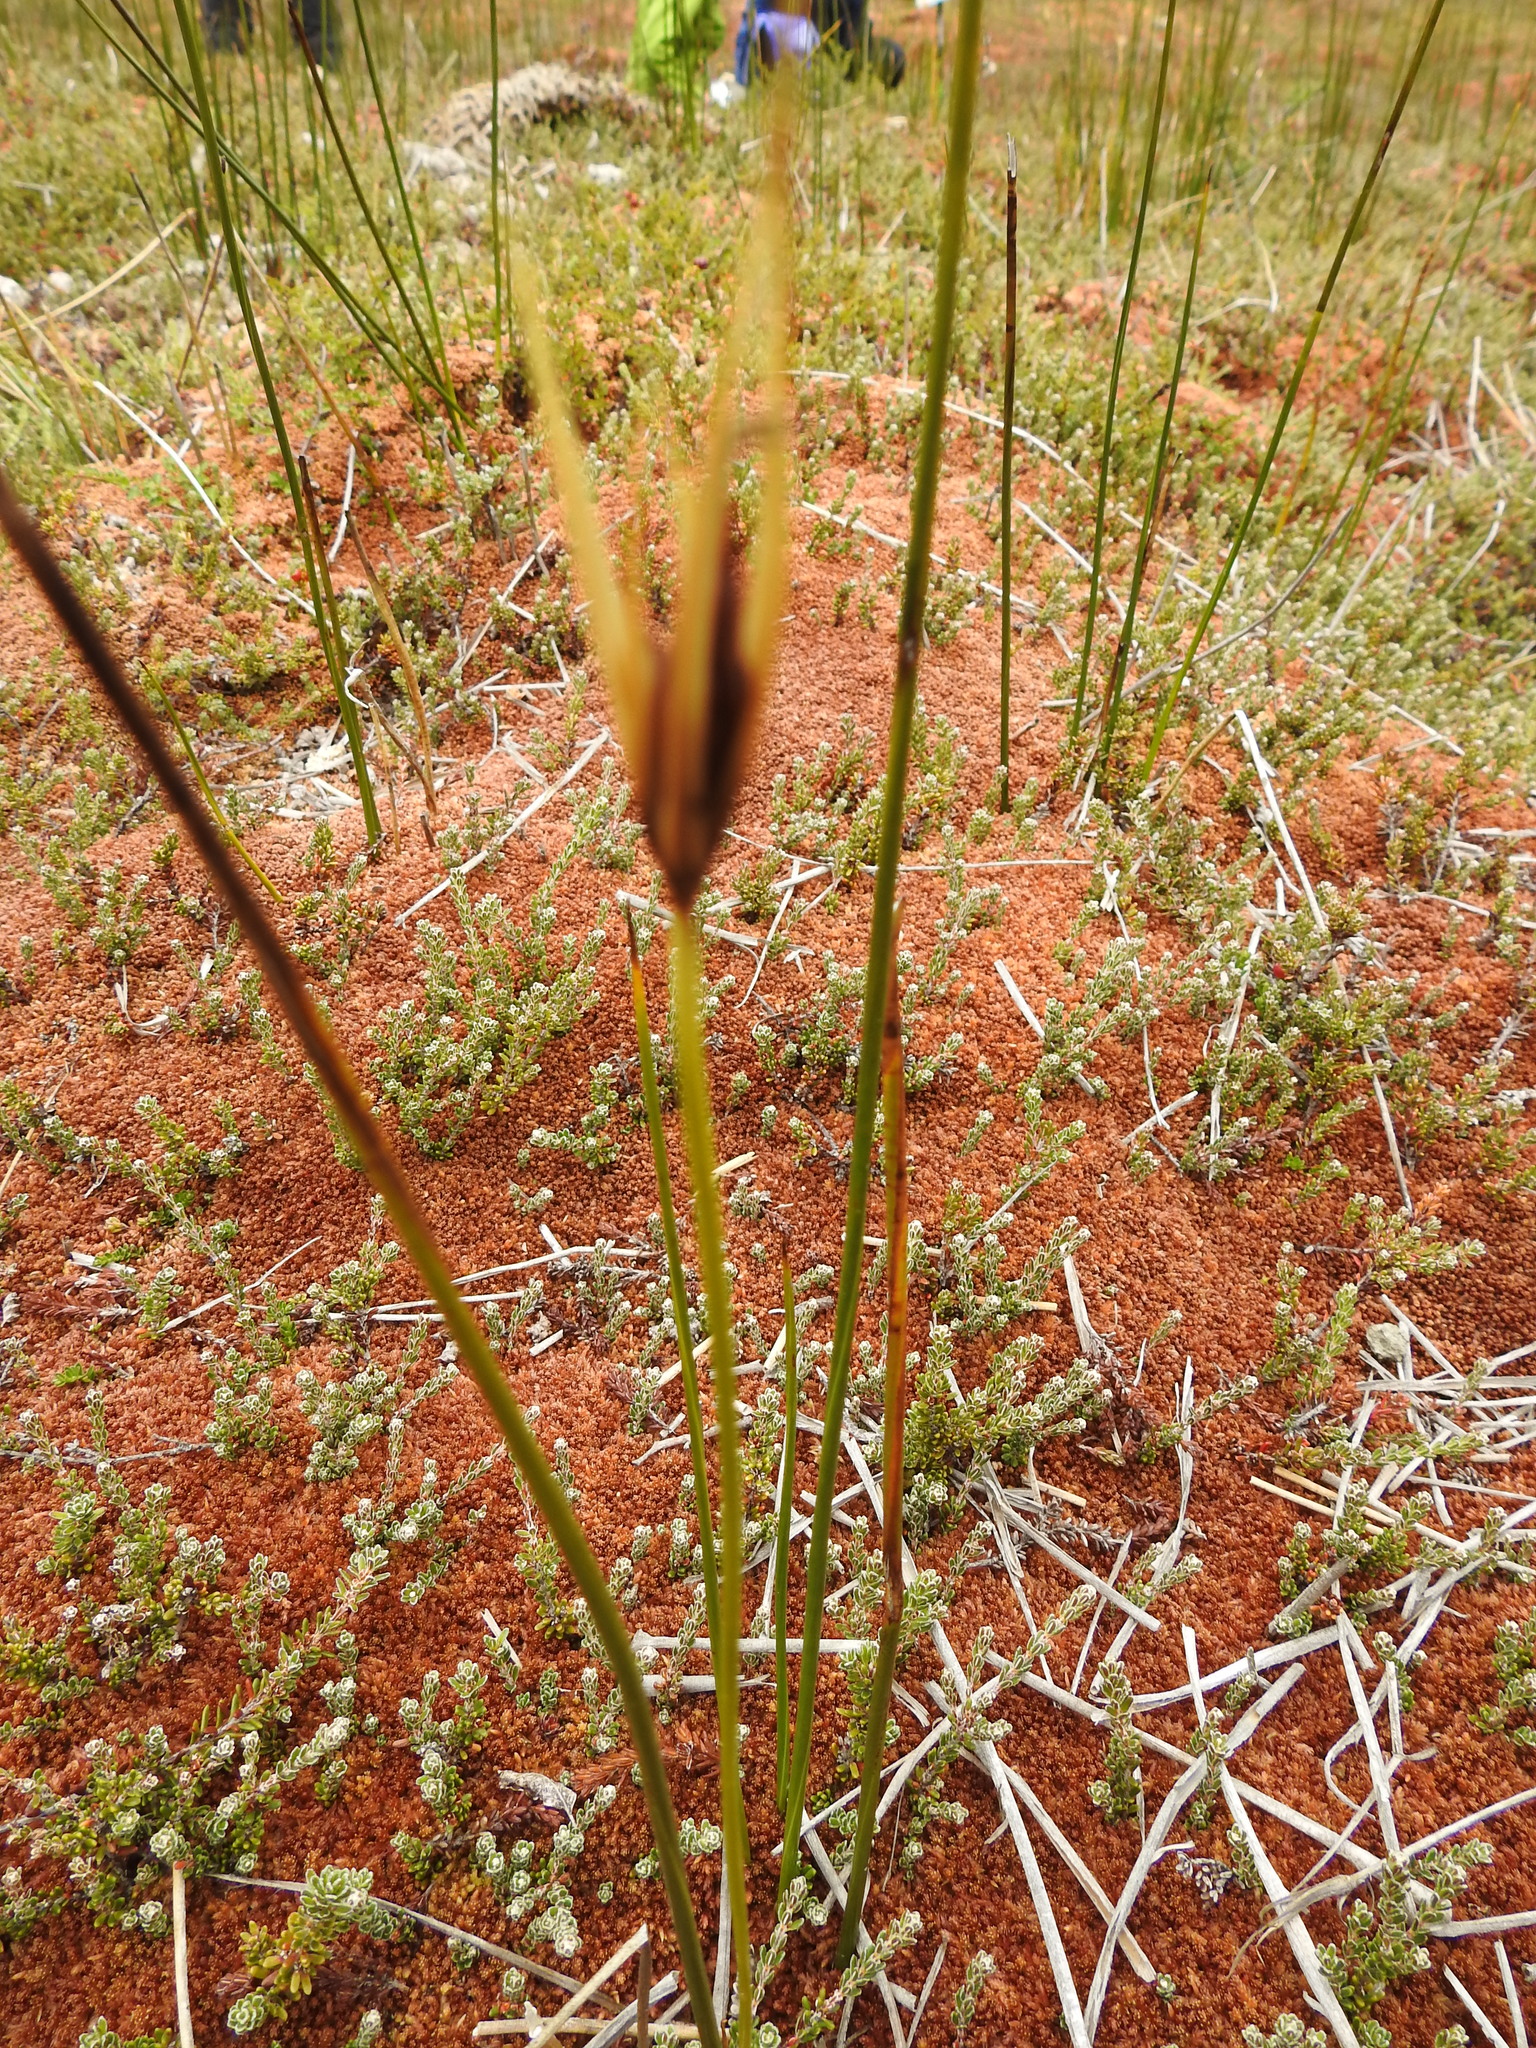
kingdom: Plantae
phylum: Tracheophyta
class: Liliopsida
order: Poales
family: Juncaceae
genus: Marsippospermum
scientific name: Marsippospermum grandiflorum
